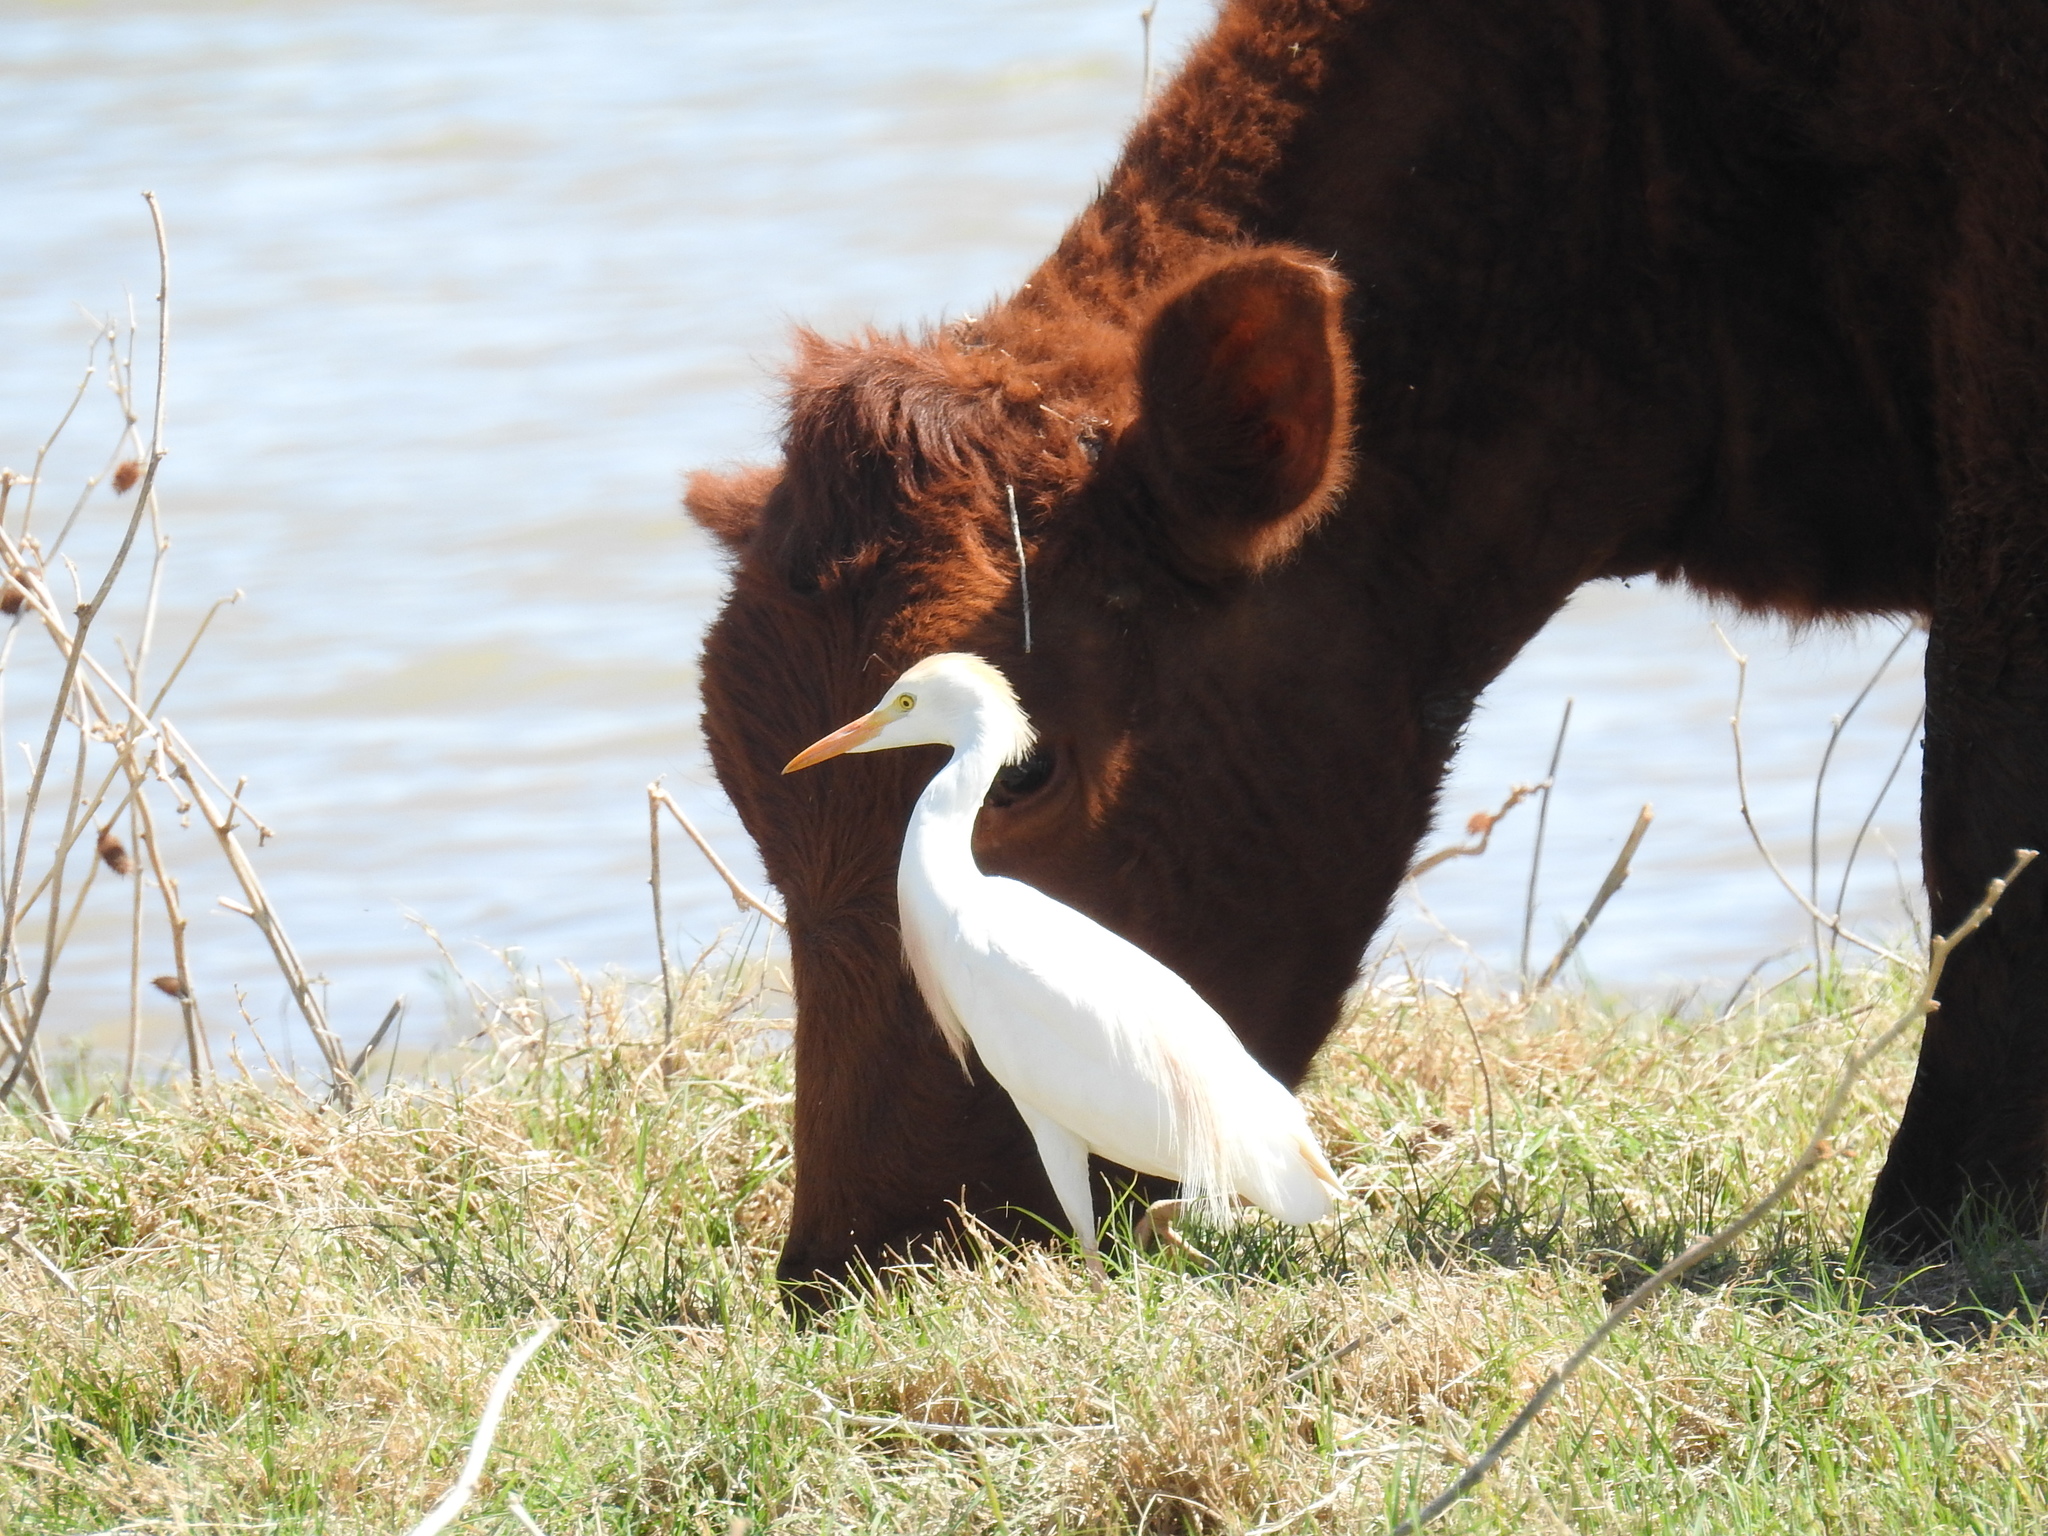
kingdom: Animalia
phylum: Chordata
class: Aves
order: Pelecaniformes
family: Ardeidae
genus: Bubulcus
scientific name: Bubulcus ibis
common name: Cattle egret
